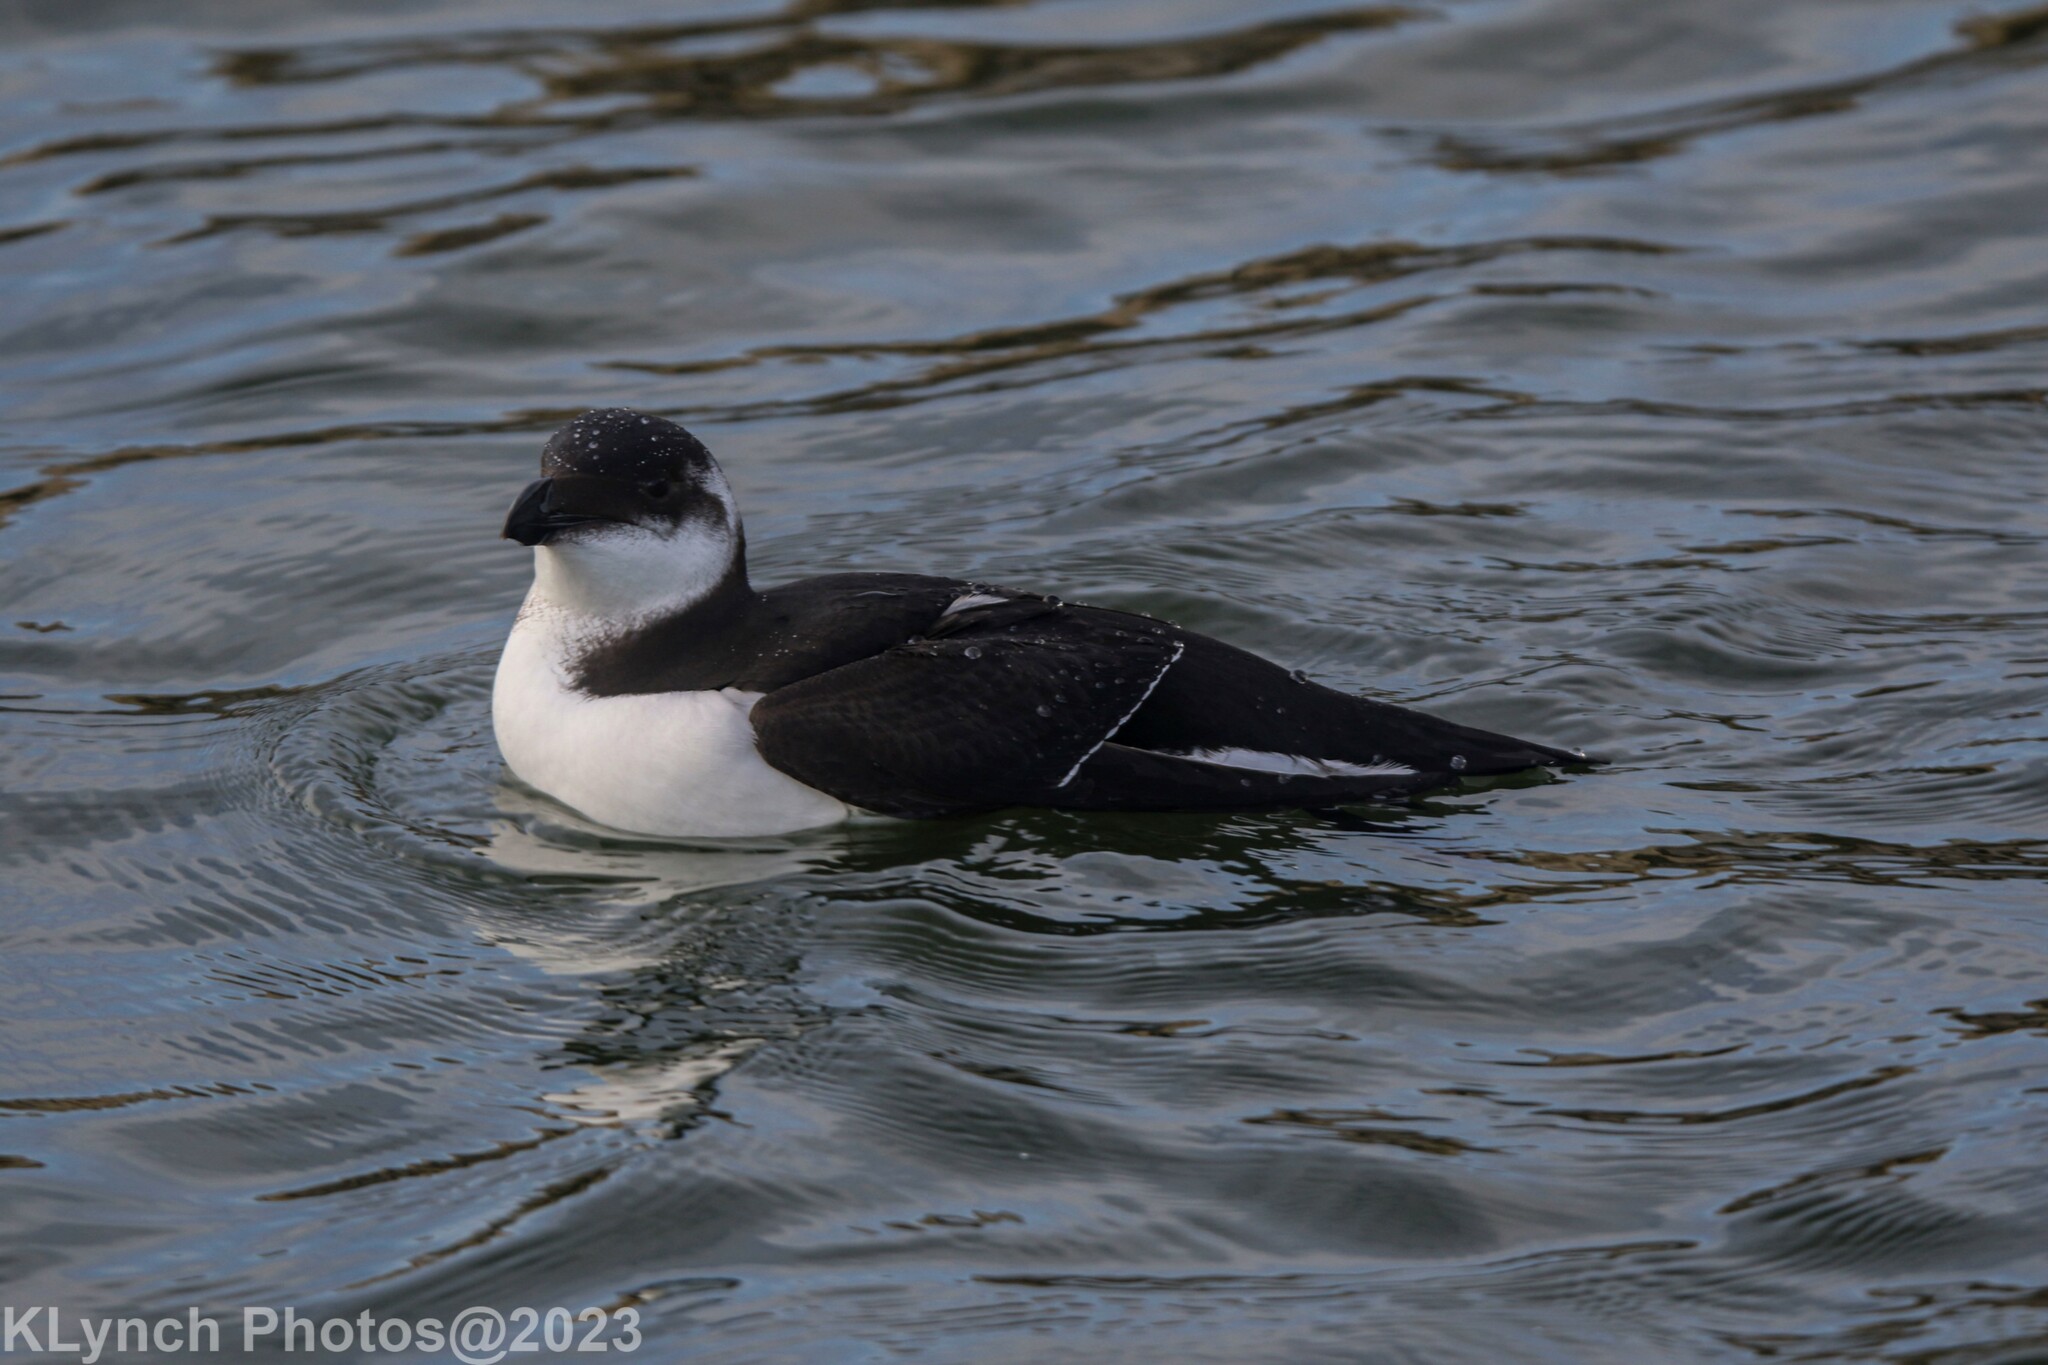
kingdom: Animalia
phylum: Chordata
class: Aves
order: Charadriiformes
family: Alcidae
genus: Alca
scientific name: Alca torda
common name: Razorbill
